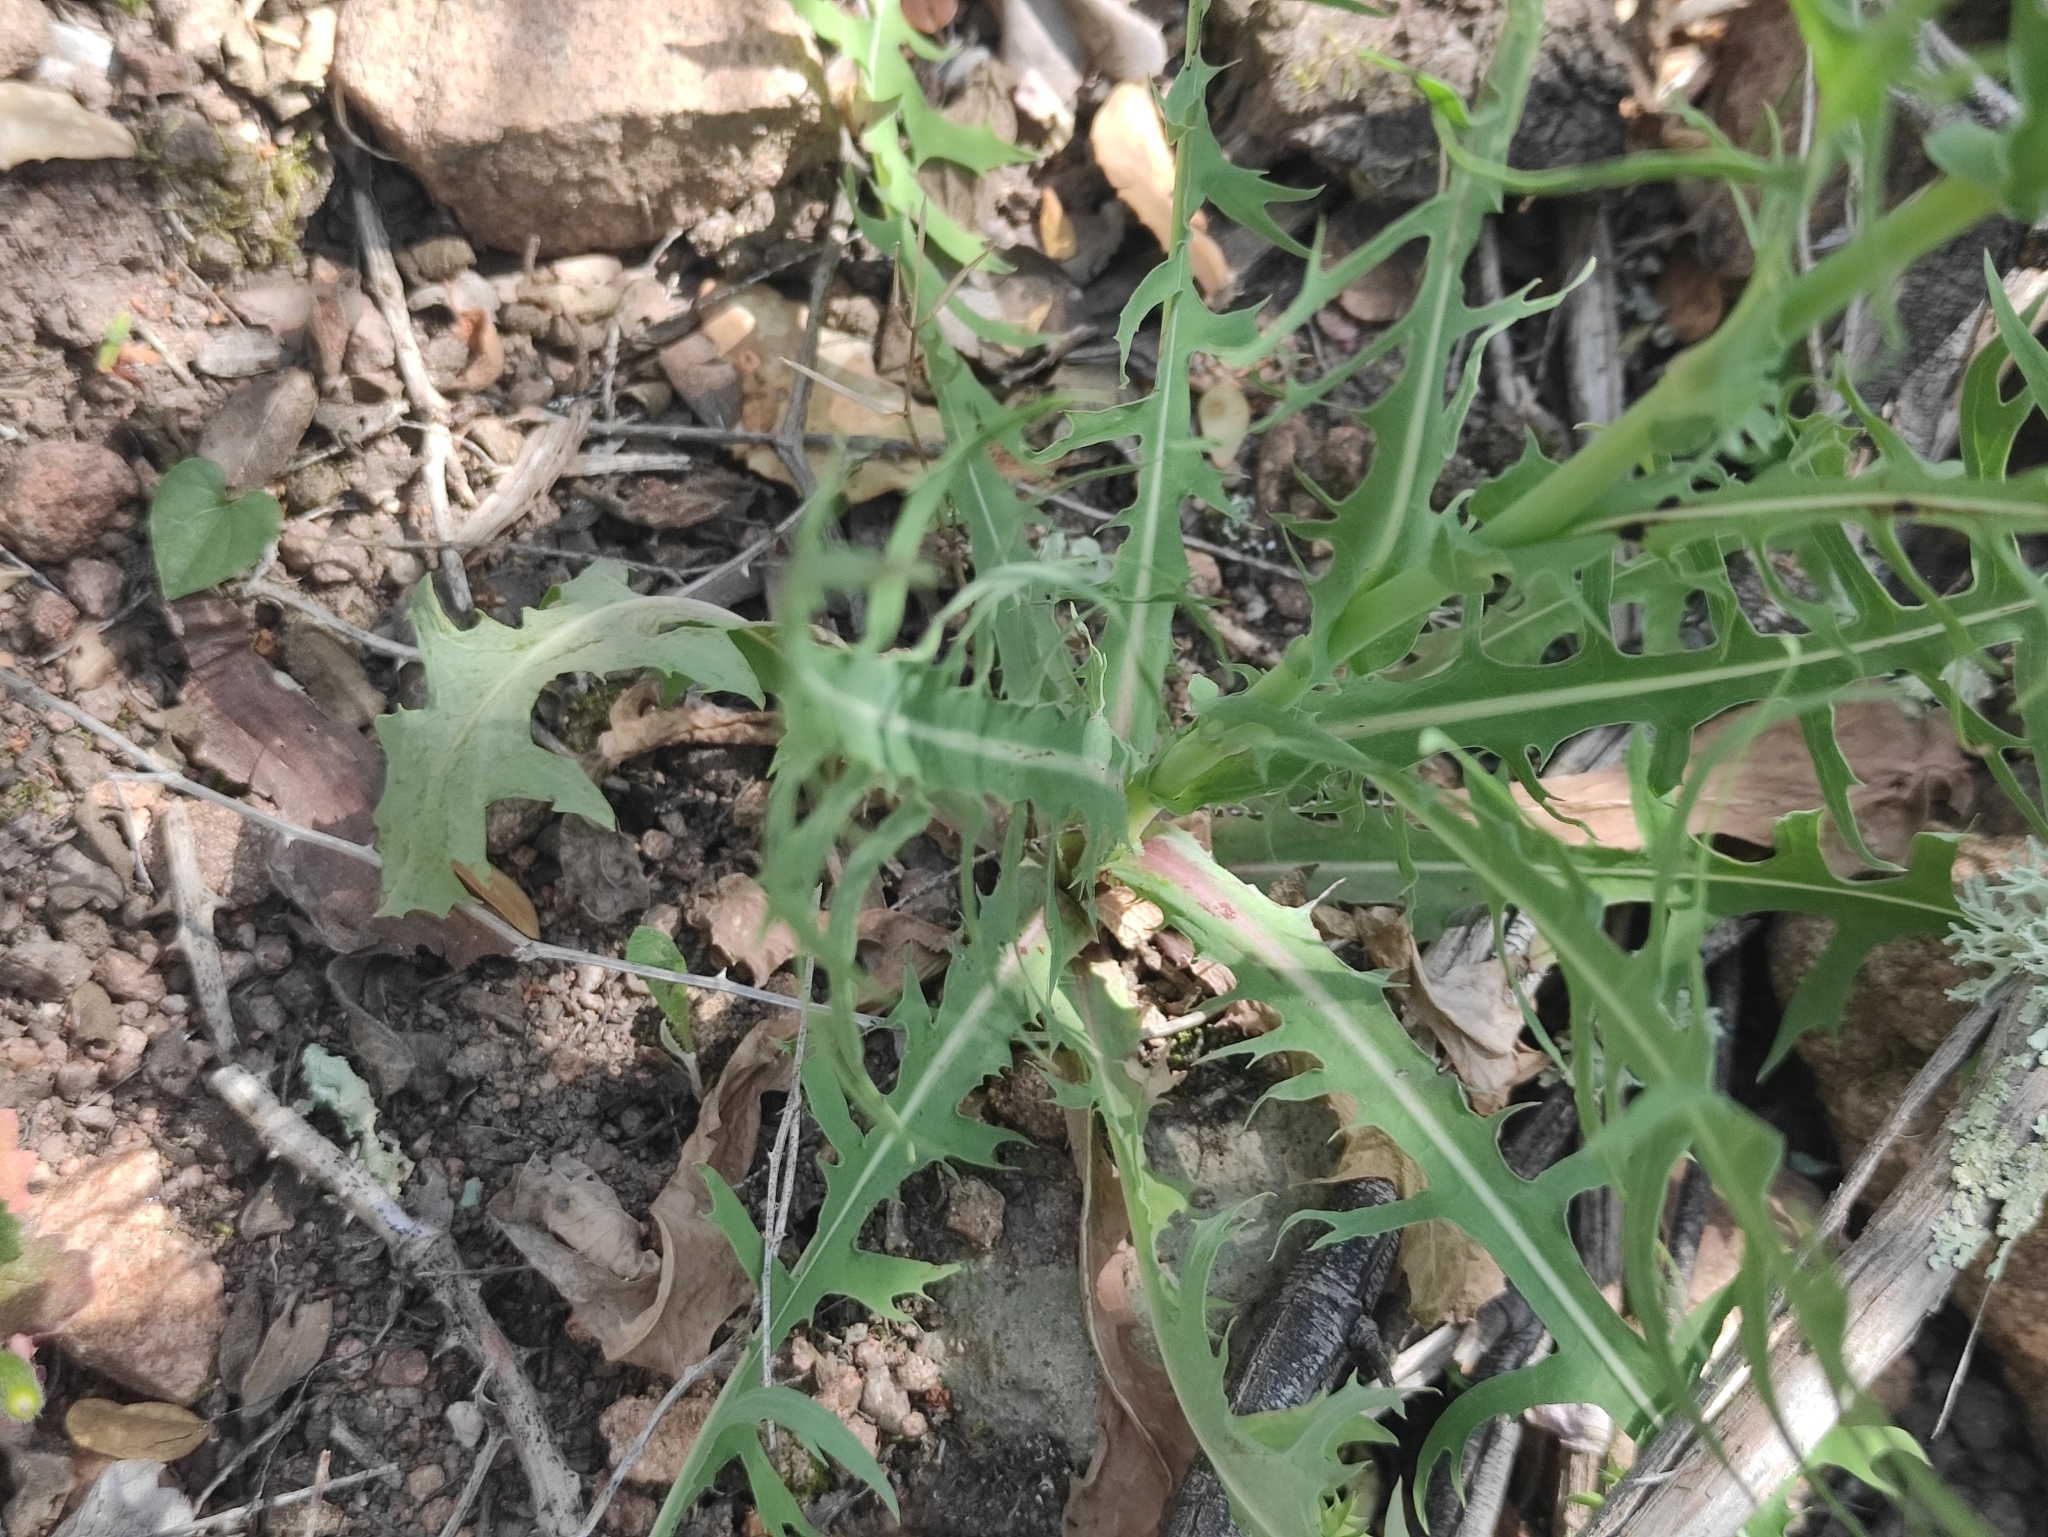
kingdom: Plantae
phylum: Tracheophyta
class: Magnoliopsida
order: Asterales
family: Asteraceae
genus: Lactuca
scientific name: Lactuca perennis
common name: Mountain lettuce
